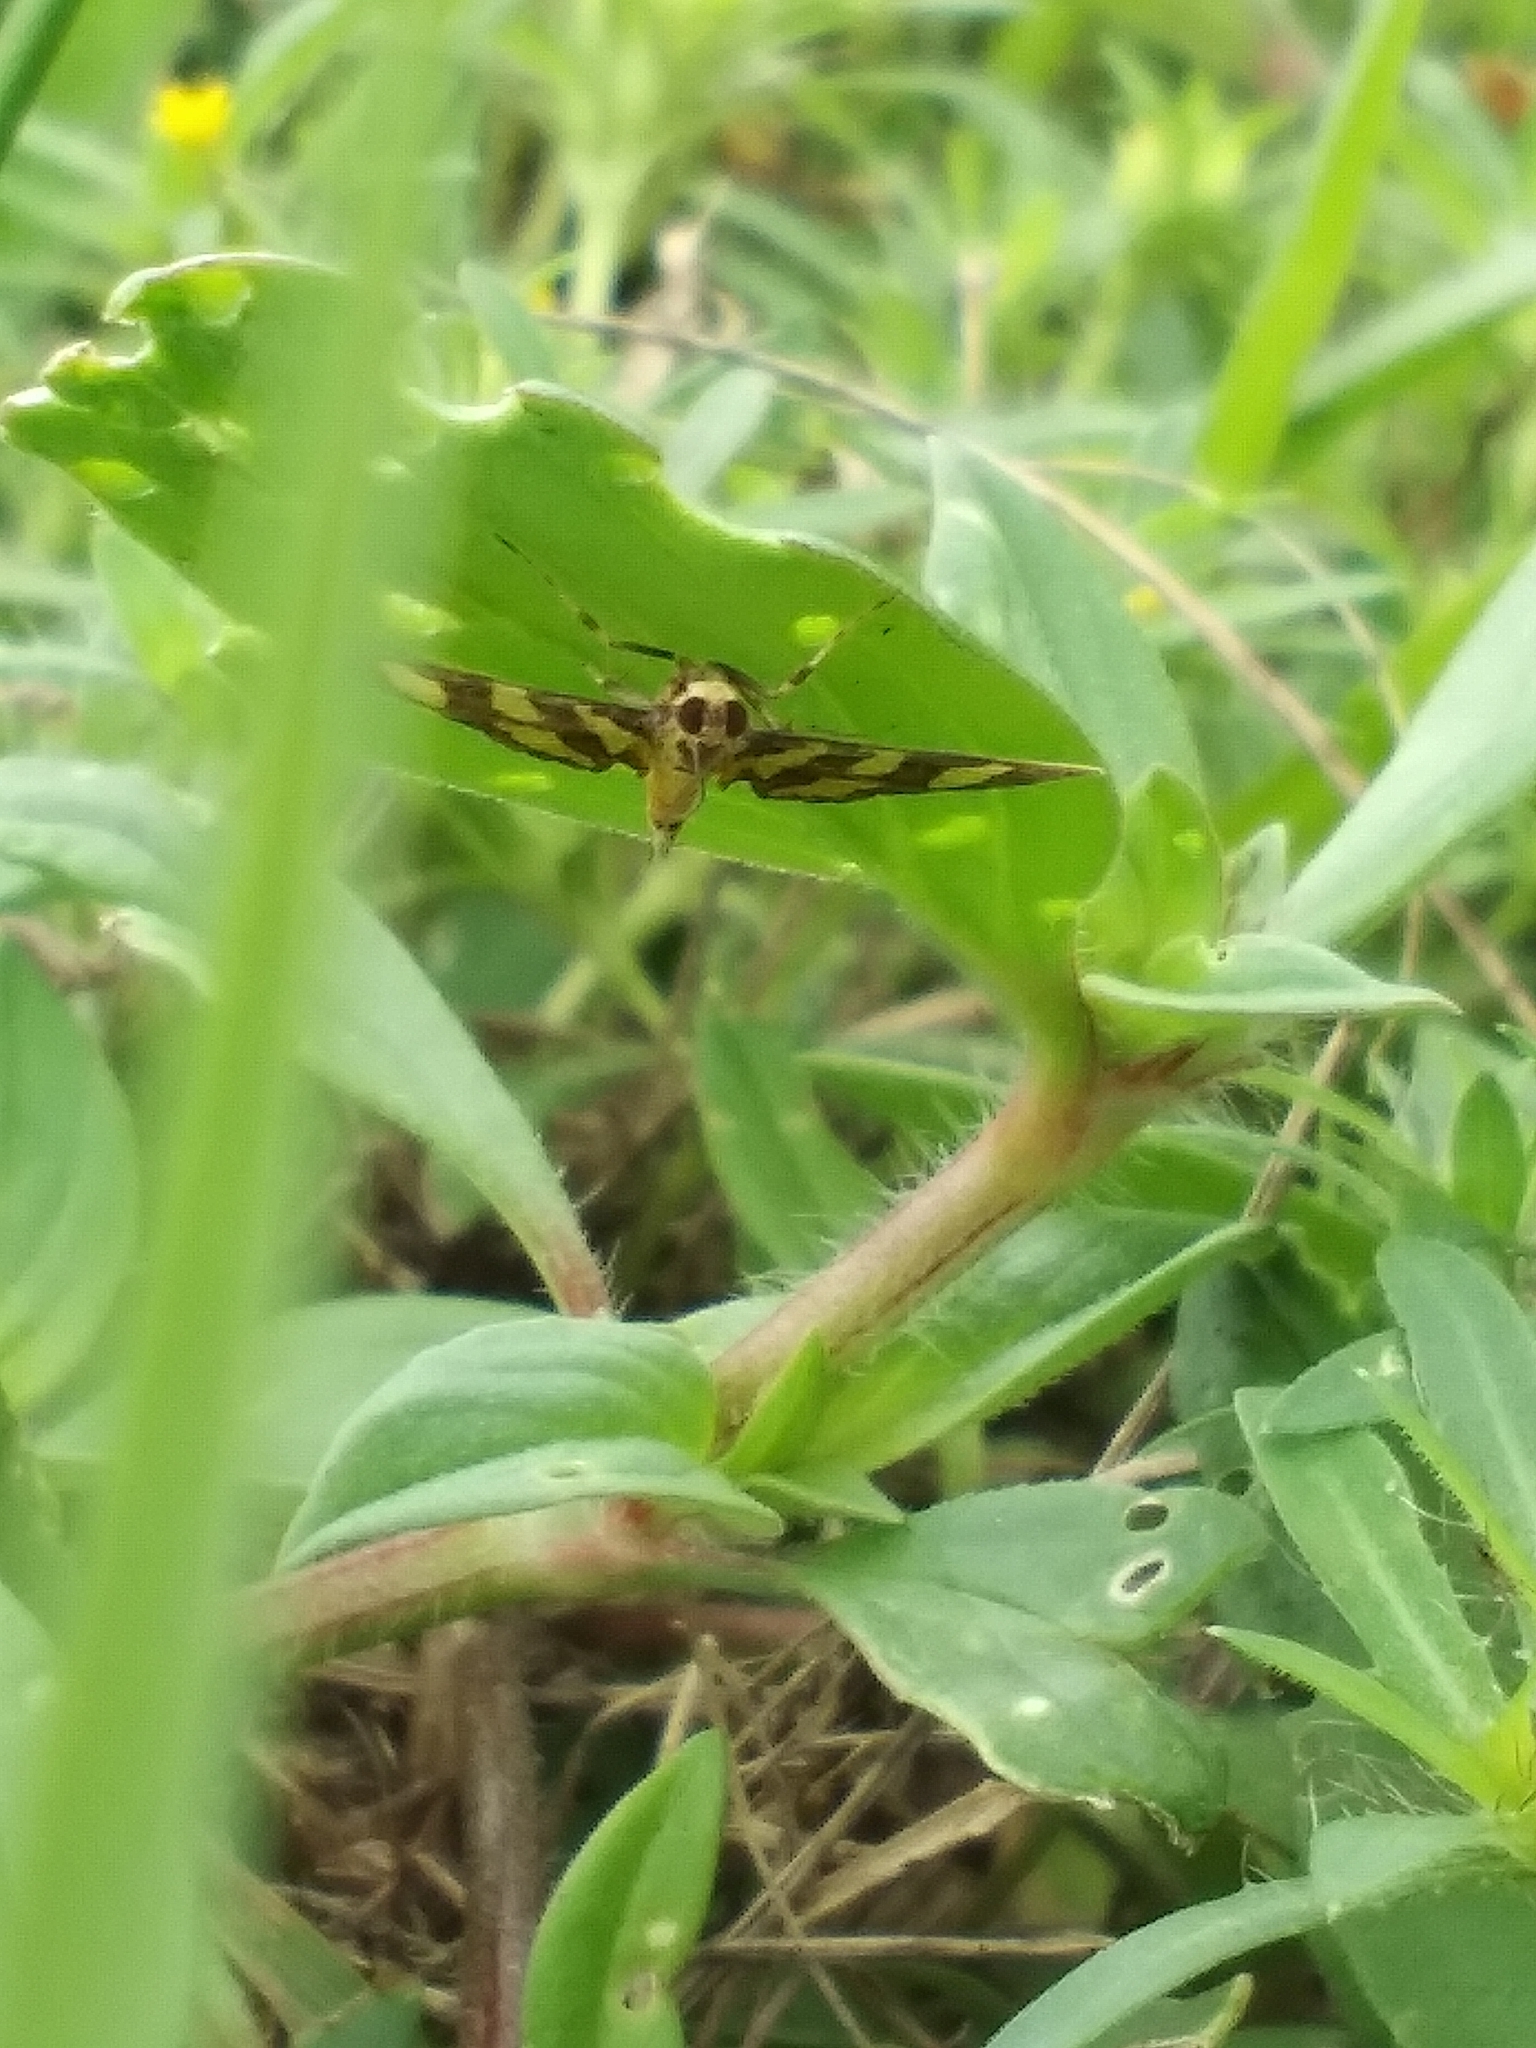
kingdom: Animalia
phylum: Arthropoda
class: Insecta
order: Lepidoptera
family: Crambidae
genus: Syngamia
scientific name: Syngamia florella
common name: Orange-spotted flower moth
